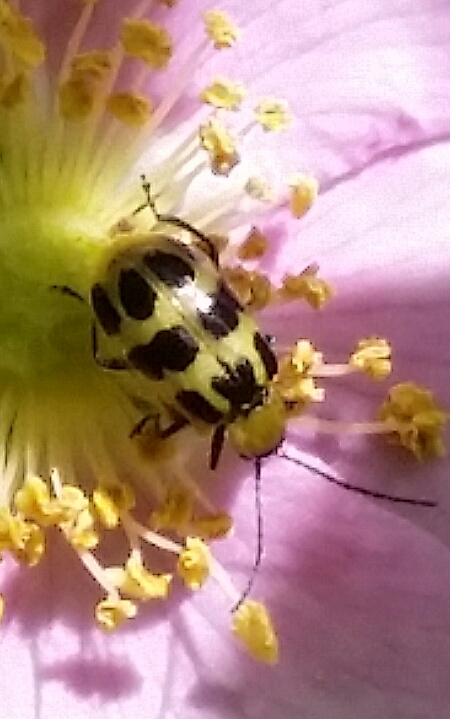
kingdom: Animalia
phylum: Arthropoda
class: Insecta
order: Coleoptera
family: Chrysomelidae
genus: Diabrotica
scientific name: Diabrotica undecimpunctata
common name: Spotted cucumber beetle
